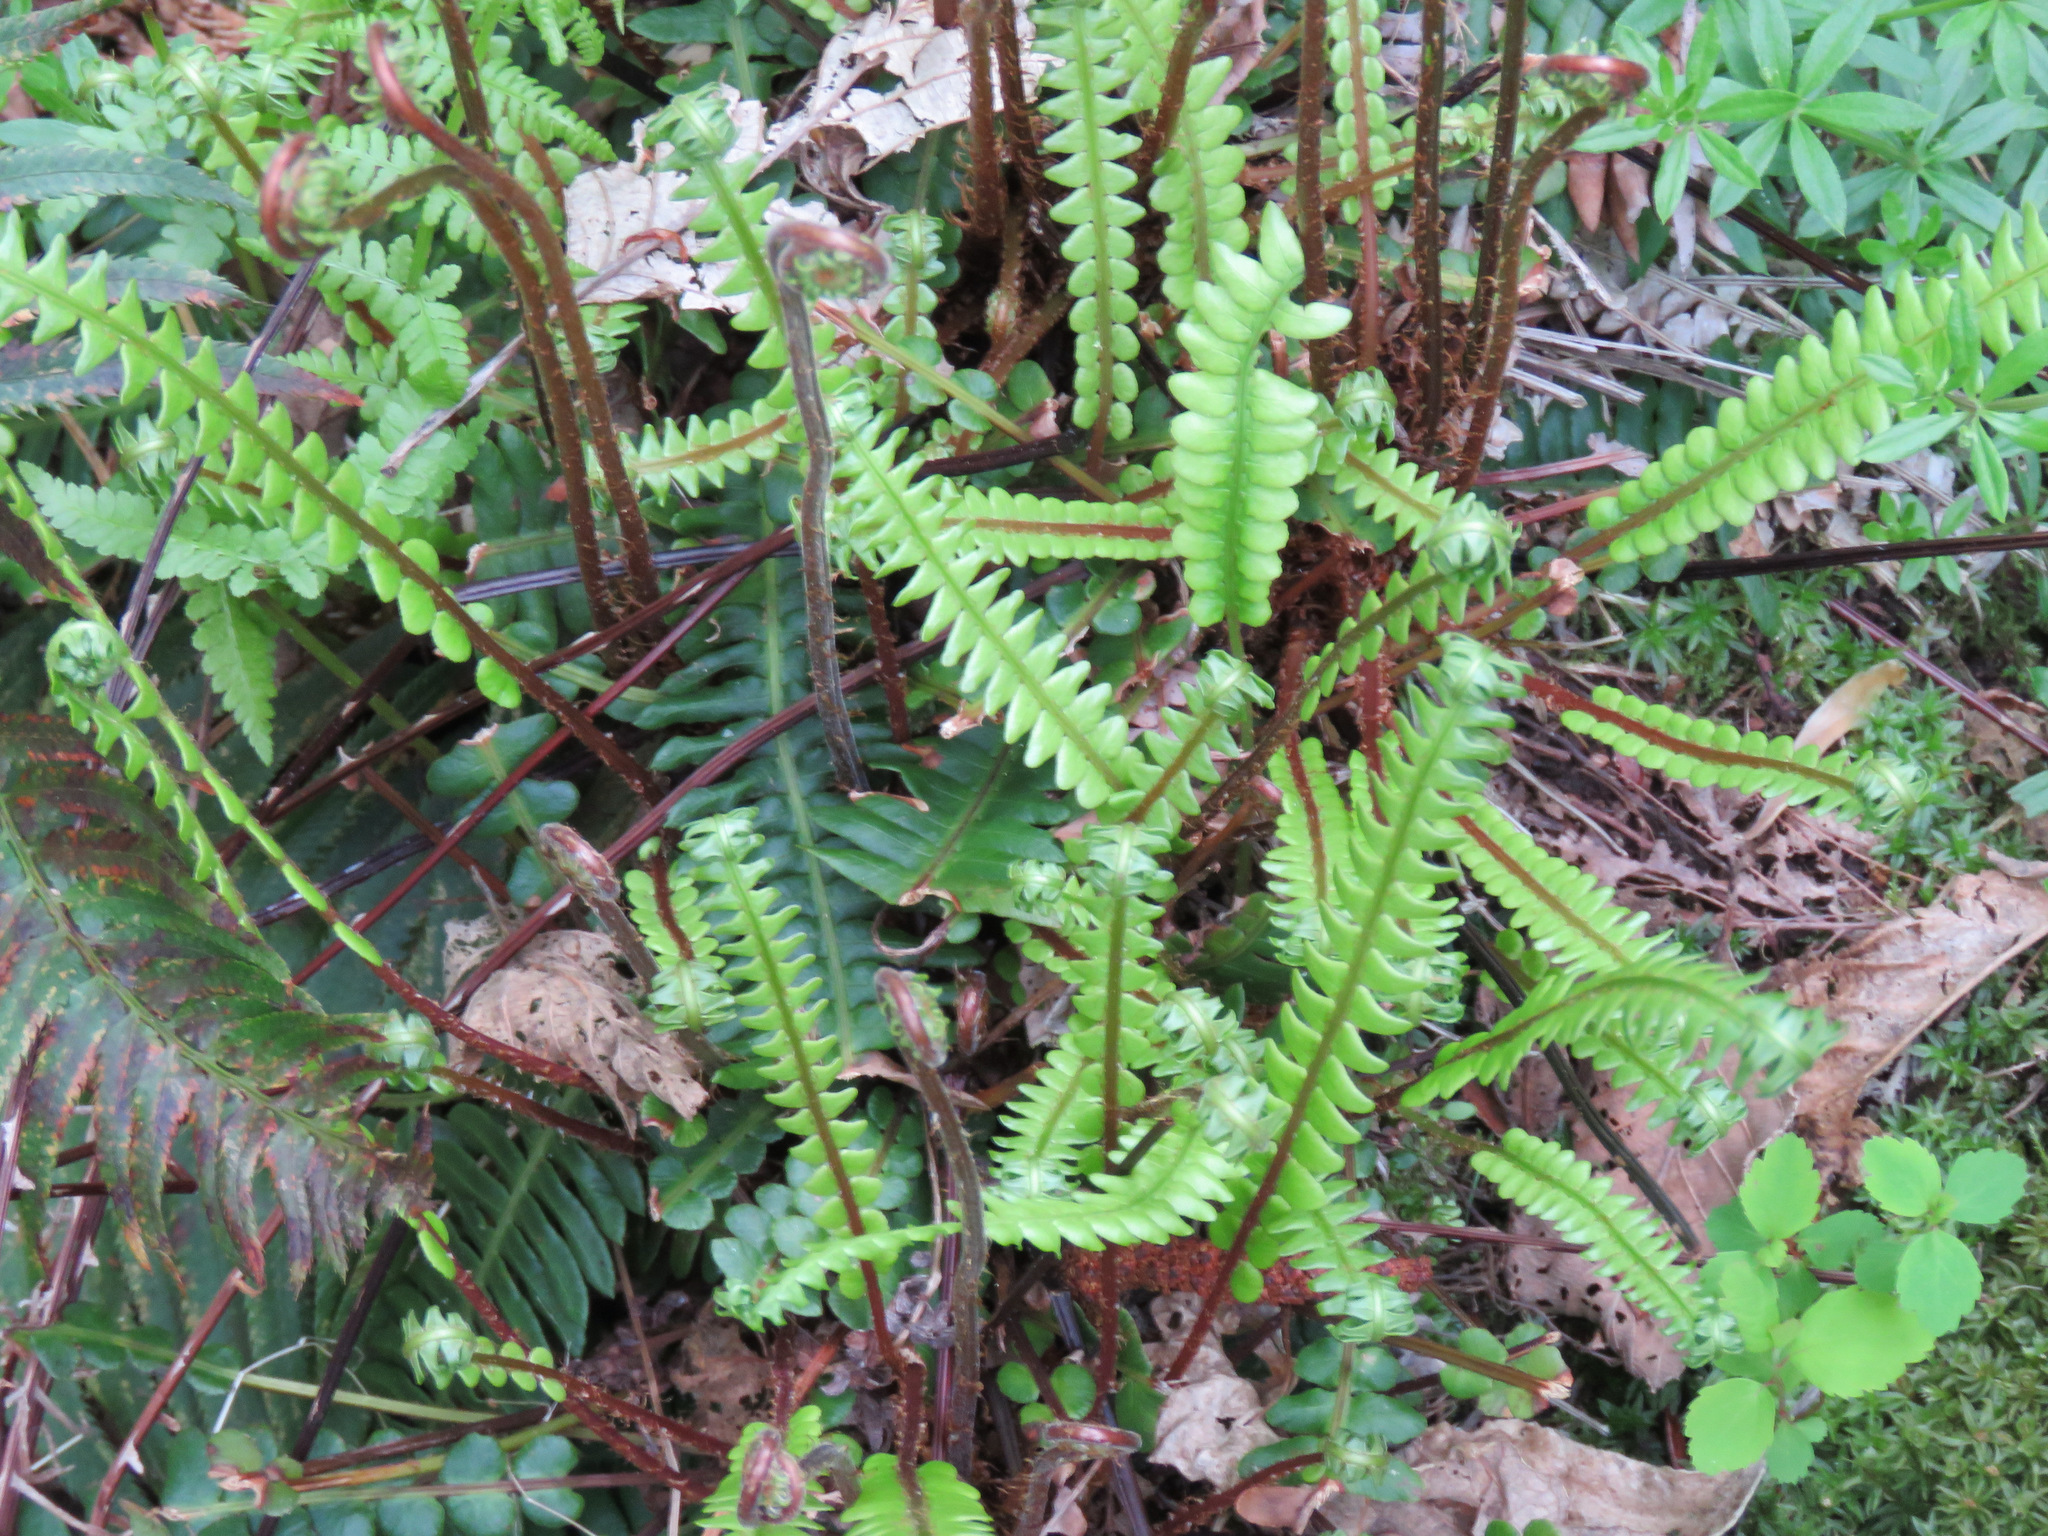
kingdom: Plantae
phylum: Tracheophyta
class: Polypodiopsida
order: Polypodiales
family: Blechnaceae
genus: Struthiopteris
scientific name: Struthiopteris spicant
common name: Deer fern
